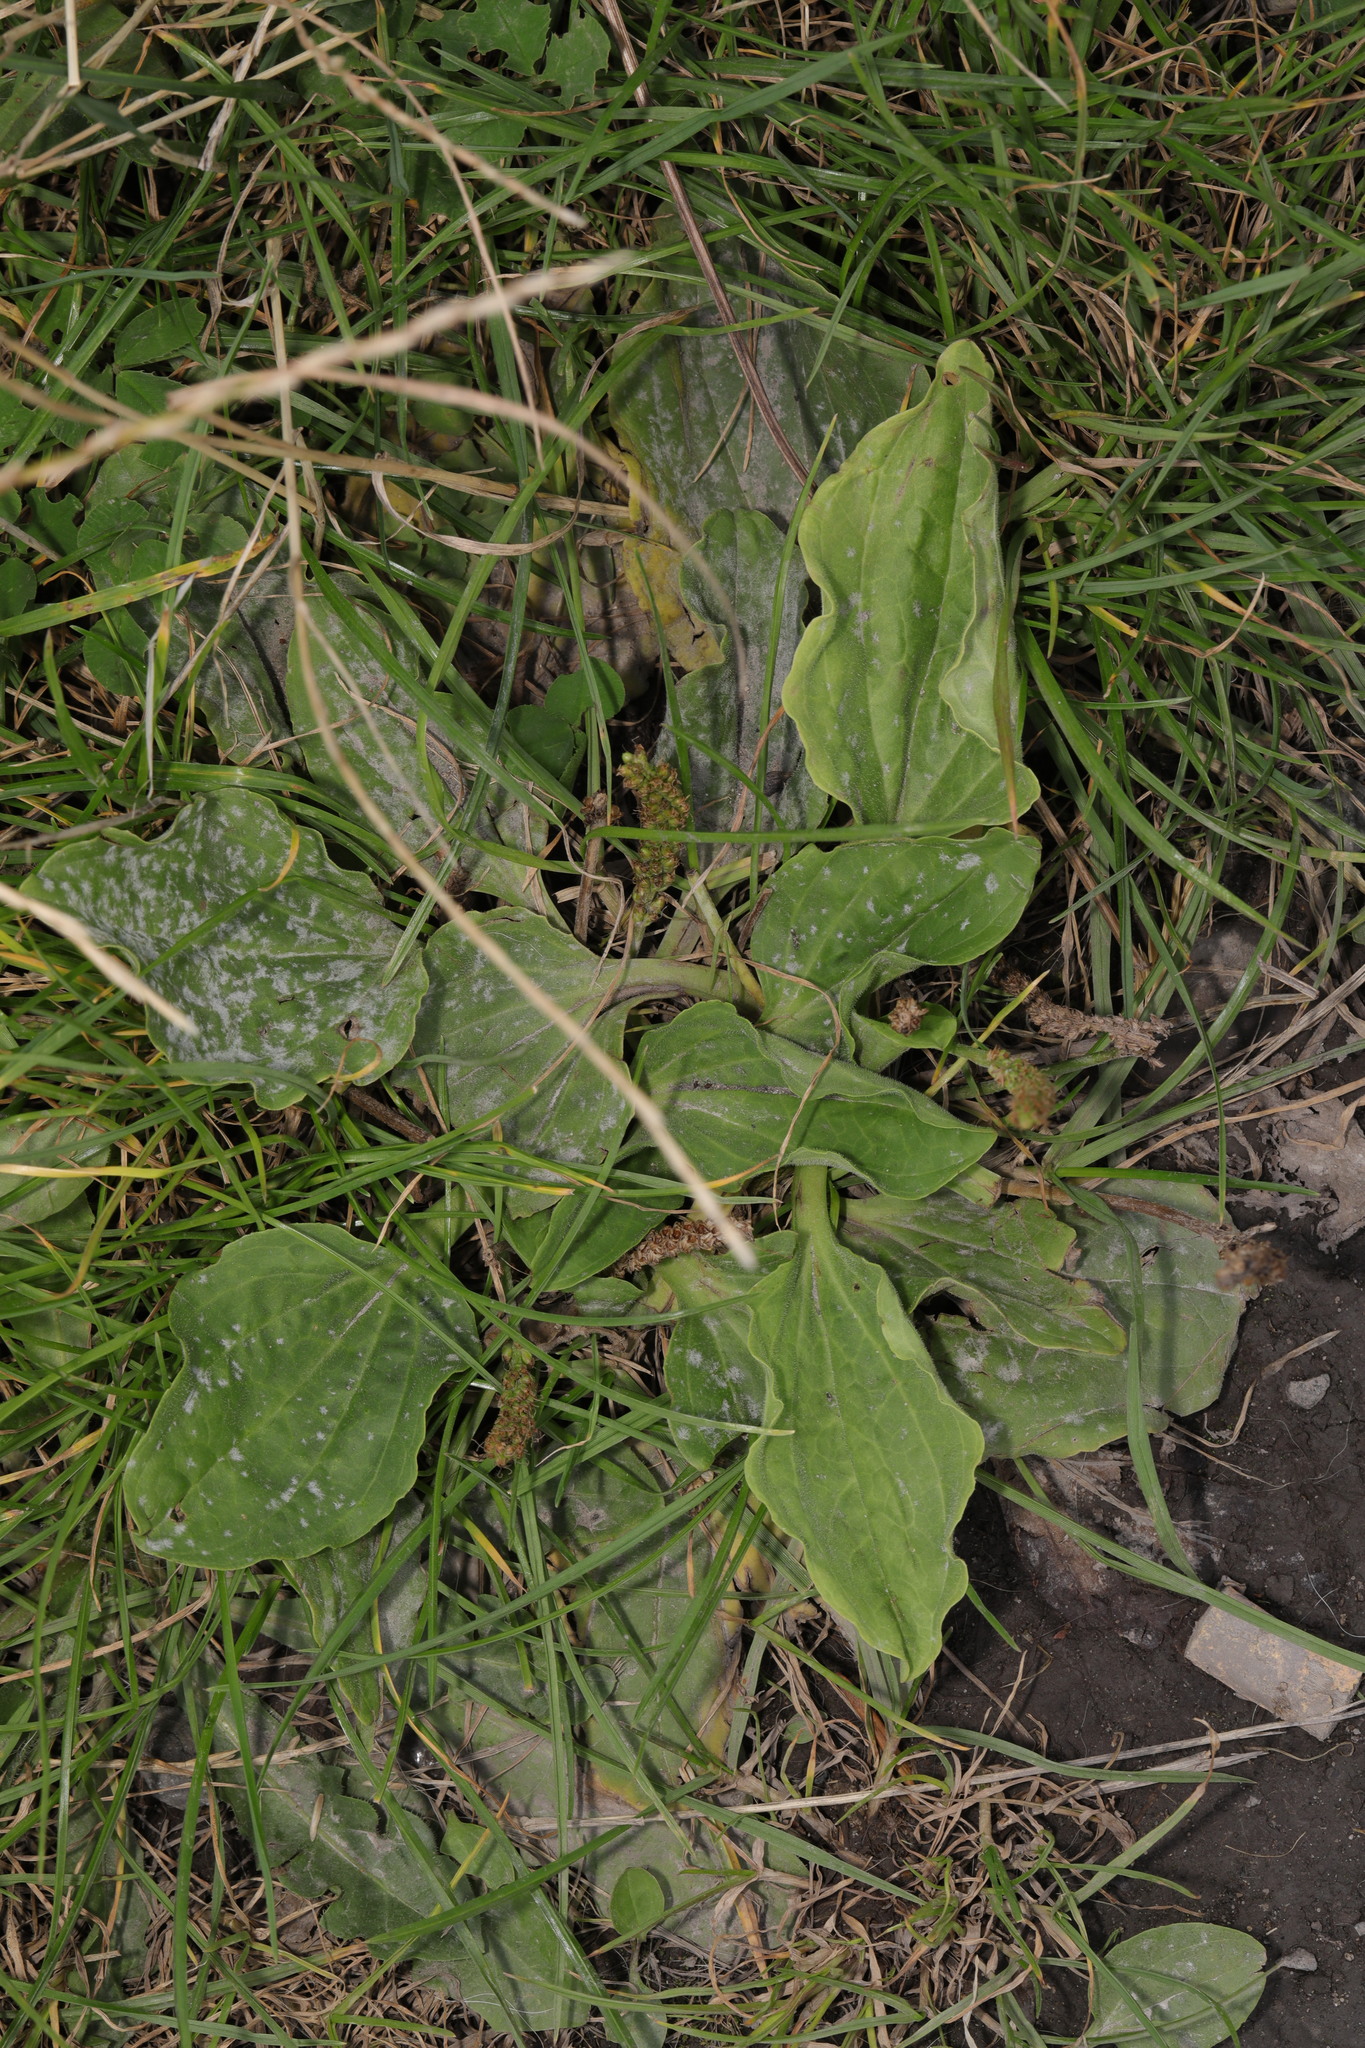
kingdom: Plantae
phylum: Tracheophyta
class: Magnoliopsida
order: Lamiales
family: Plantaginaceae
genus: Plantago
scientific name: Plantago major
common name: Common plantain
